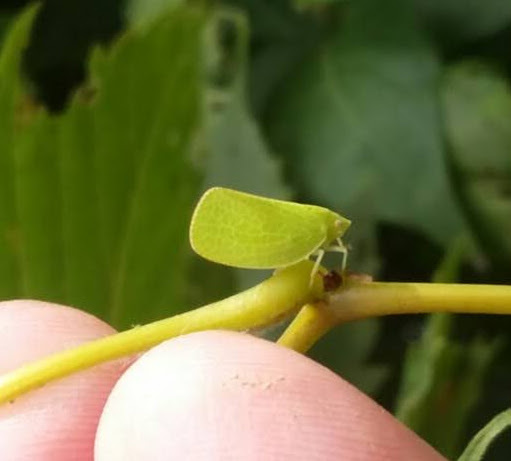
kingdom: Animalia
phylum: Arthropoda
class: Insecta
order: Hemiptera
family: Acanaloniidae
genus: Acanalonia
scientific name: Acanalonia conica
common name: Green cone-headed planthopper
